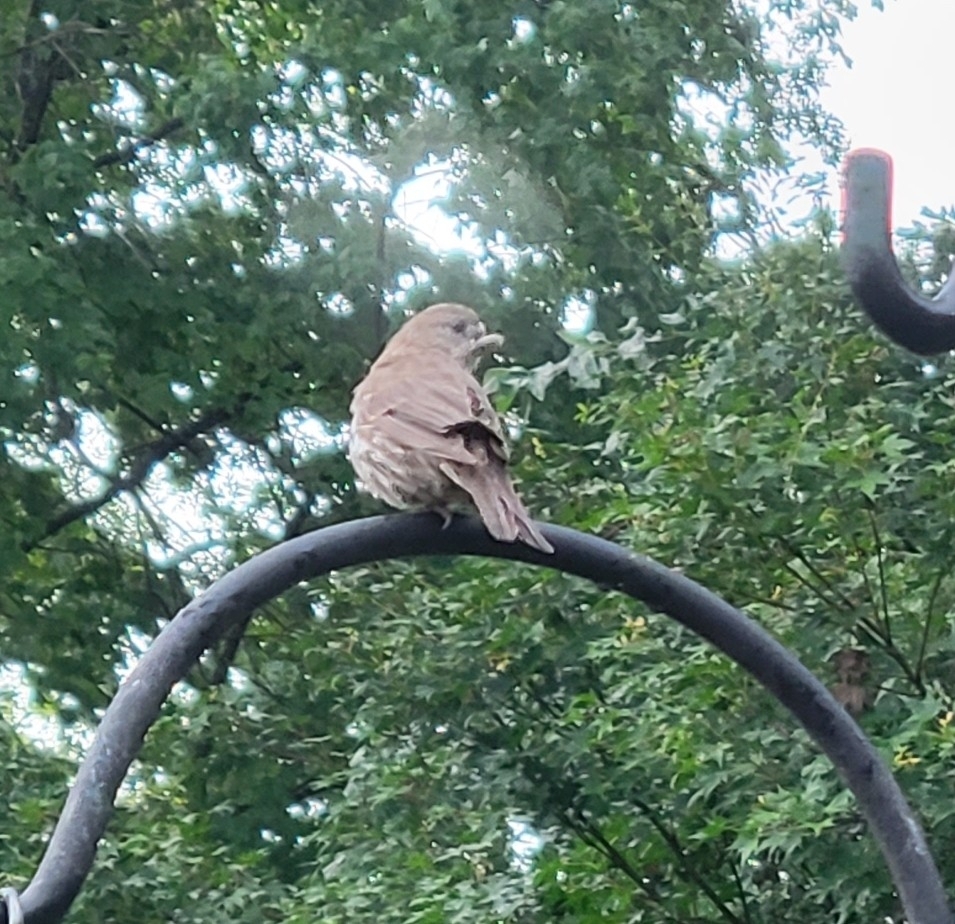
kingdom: Animalia
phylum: Chordata
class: Aves
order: Passeriformes
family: Fringillidae
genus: Haemorhous
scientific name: Haemorhous mexicanus
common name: House finch
